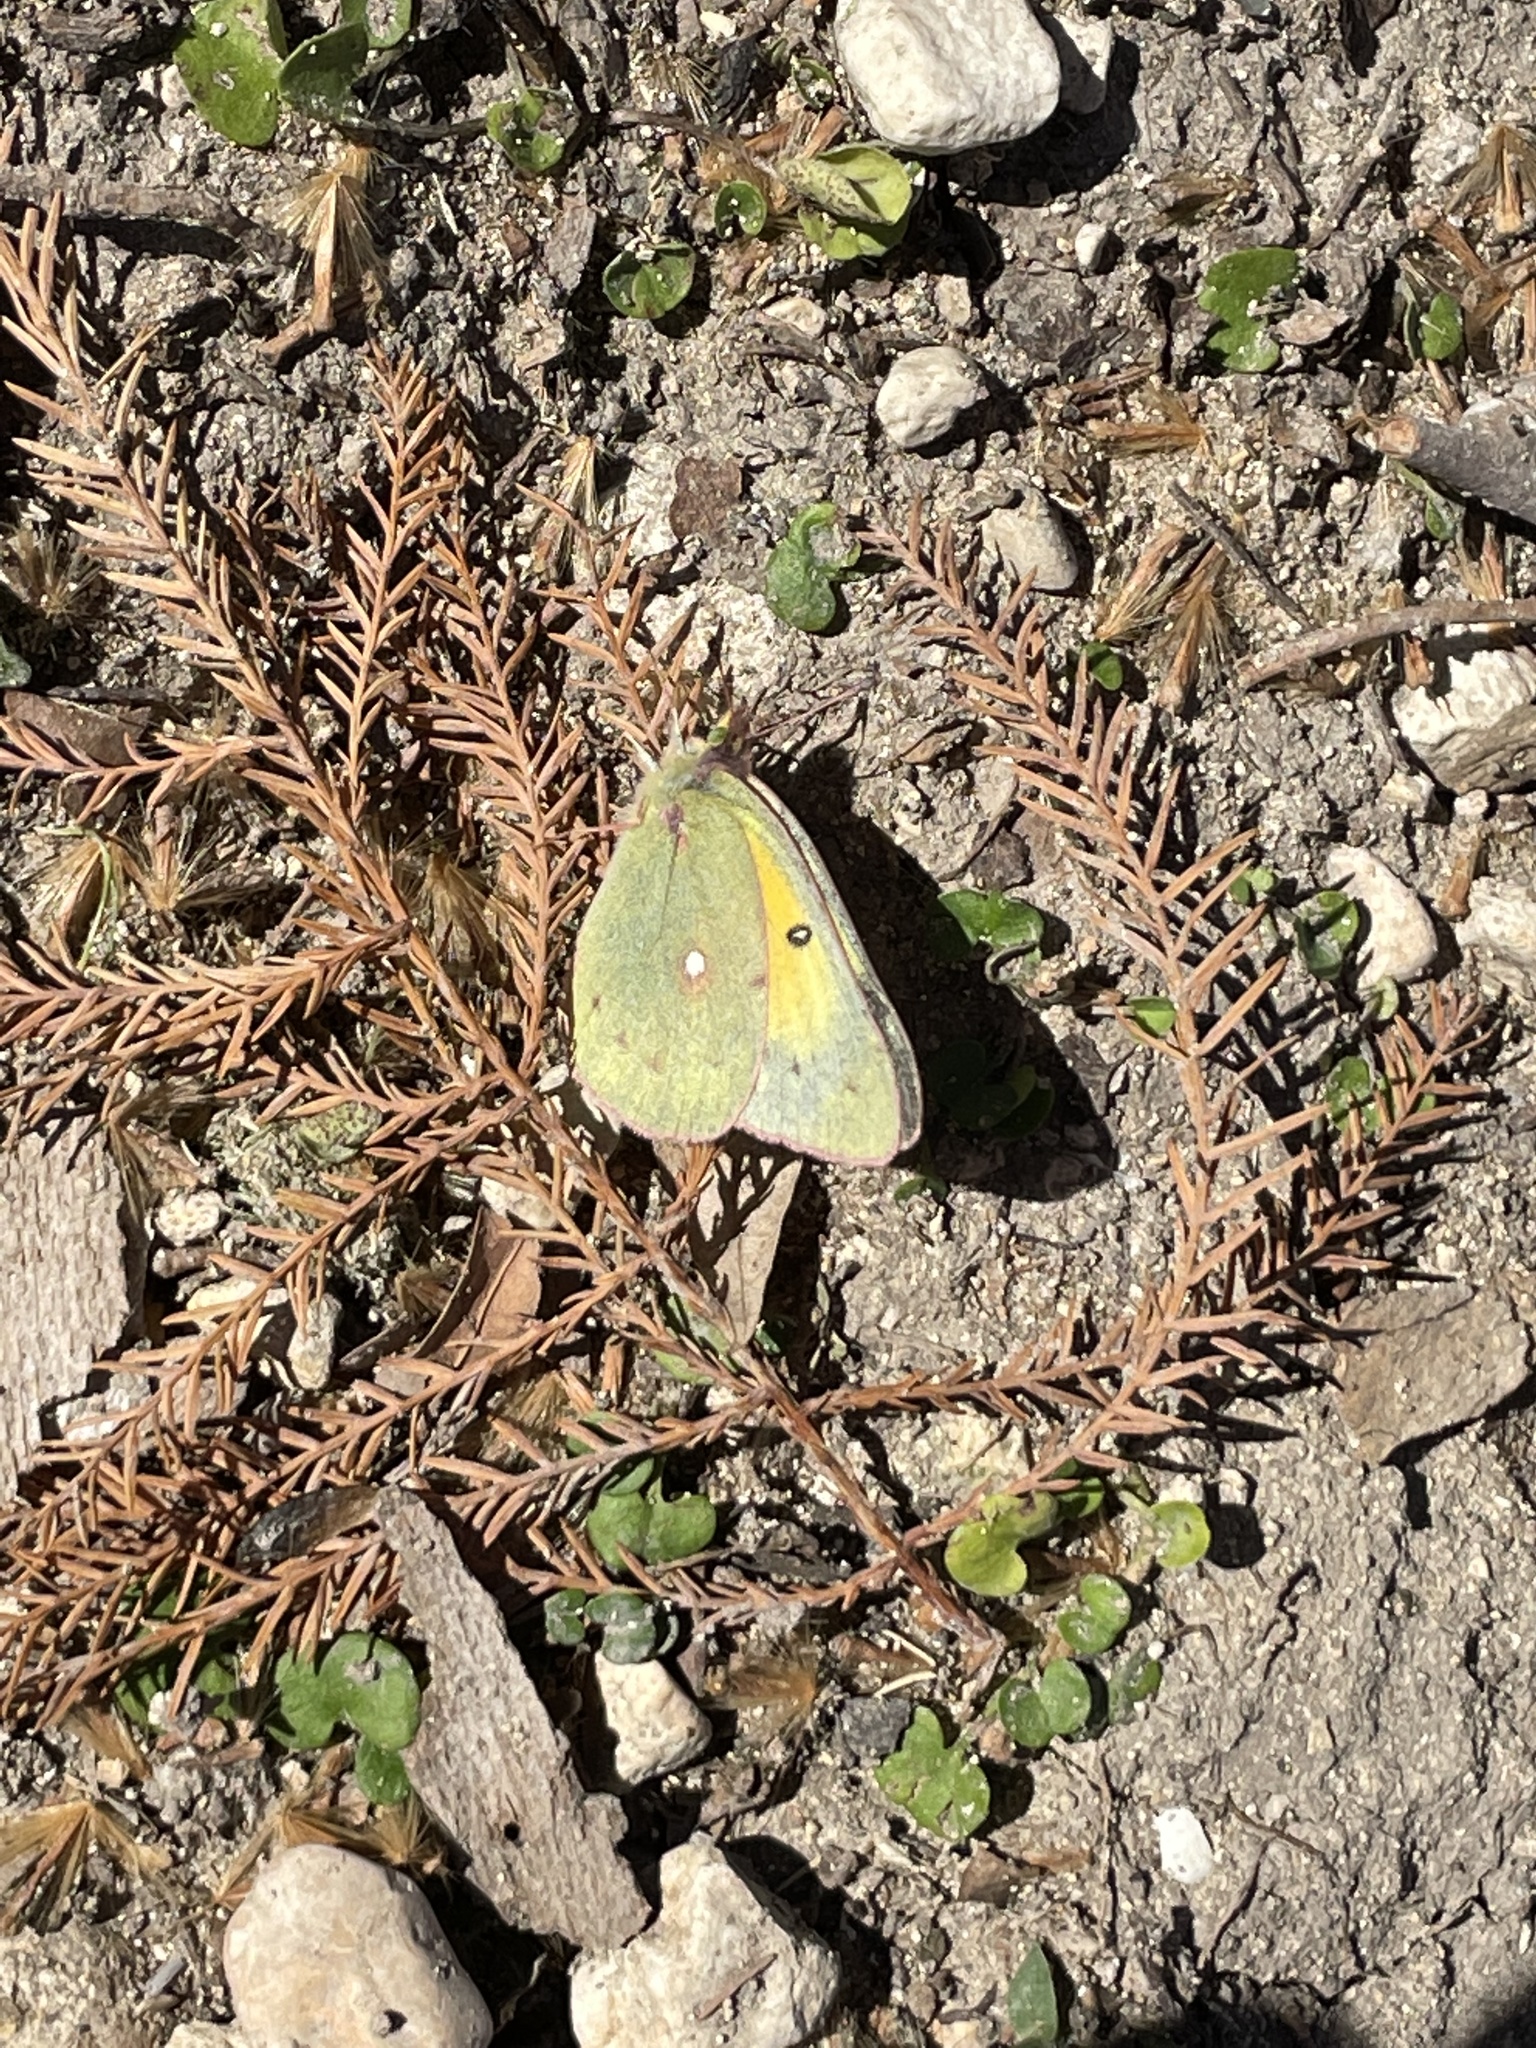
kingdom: Animalia
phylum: Arthropoda
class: Insecta
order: Lepidoptera
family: Pieridae
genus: Colias
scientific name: Colias eurytheme
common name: Alfalfa butterfly
